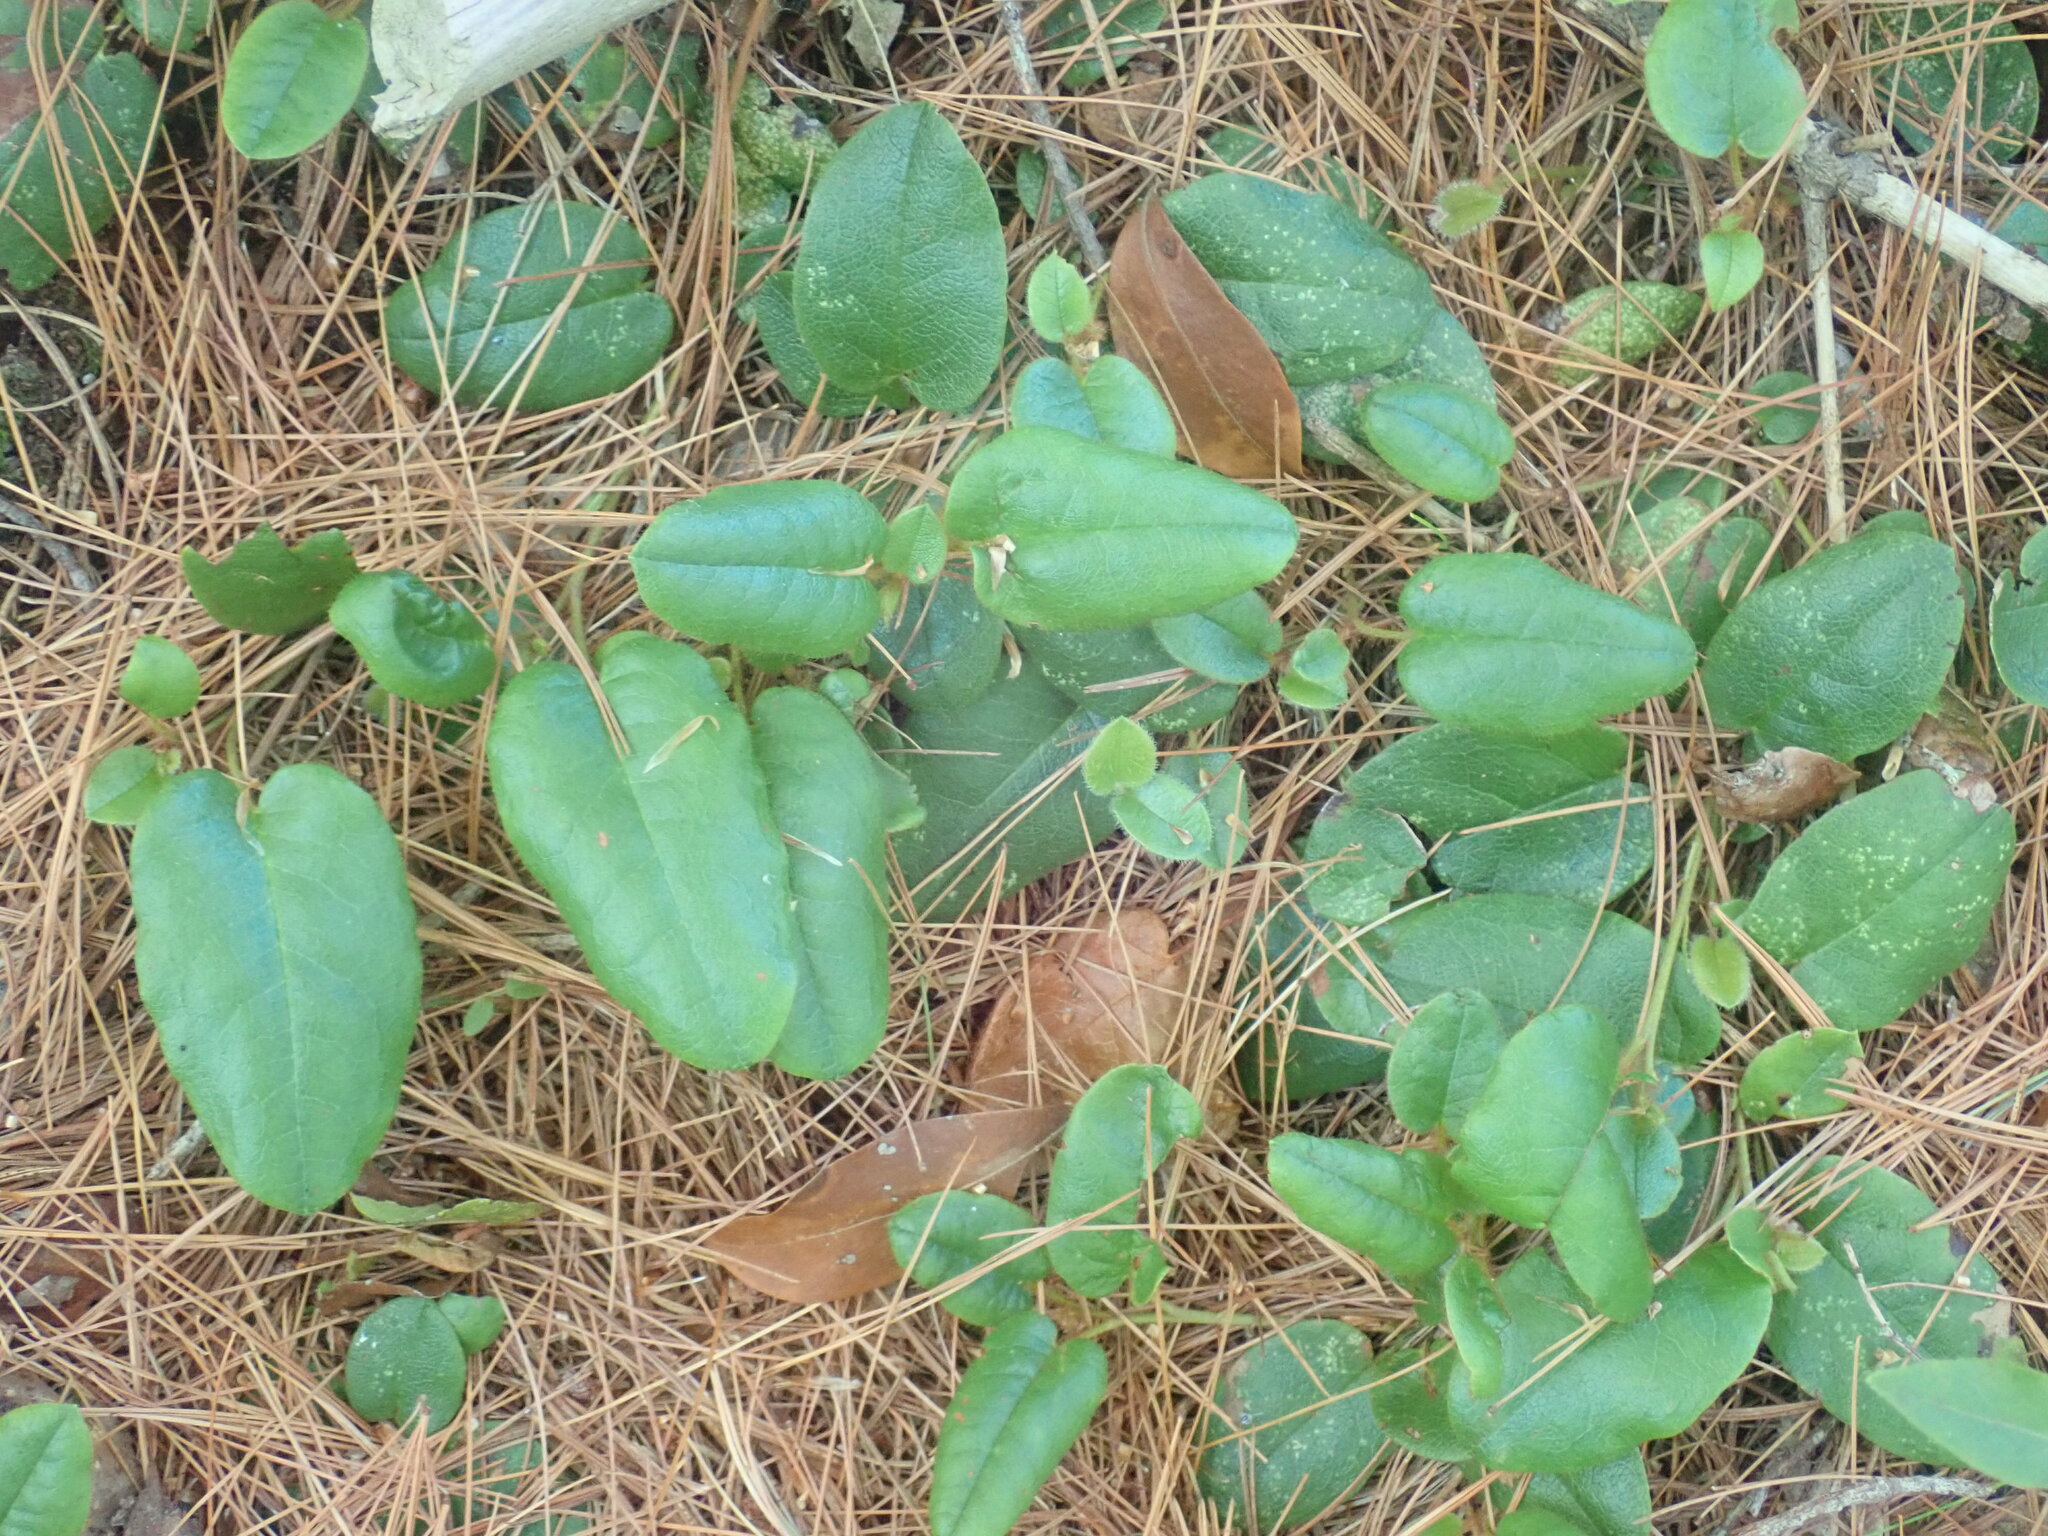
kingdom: Plantae
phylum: Tracheophyta
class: Magnoliopsida
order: Ericales
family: Ericaceae
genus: Epigaea
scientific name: Epigaea repens
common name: Gravelroot
